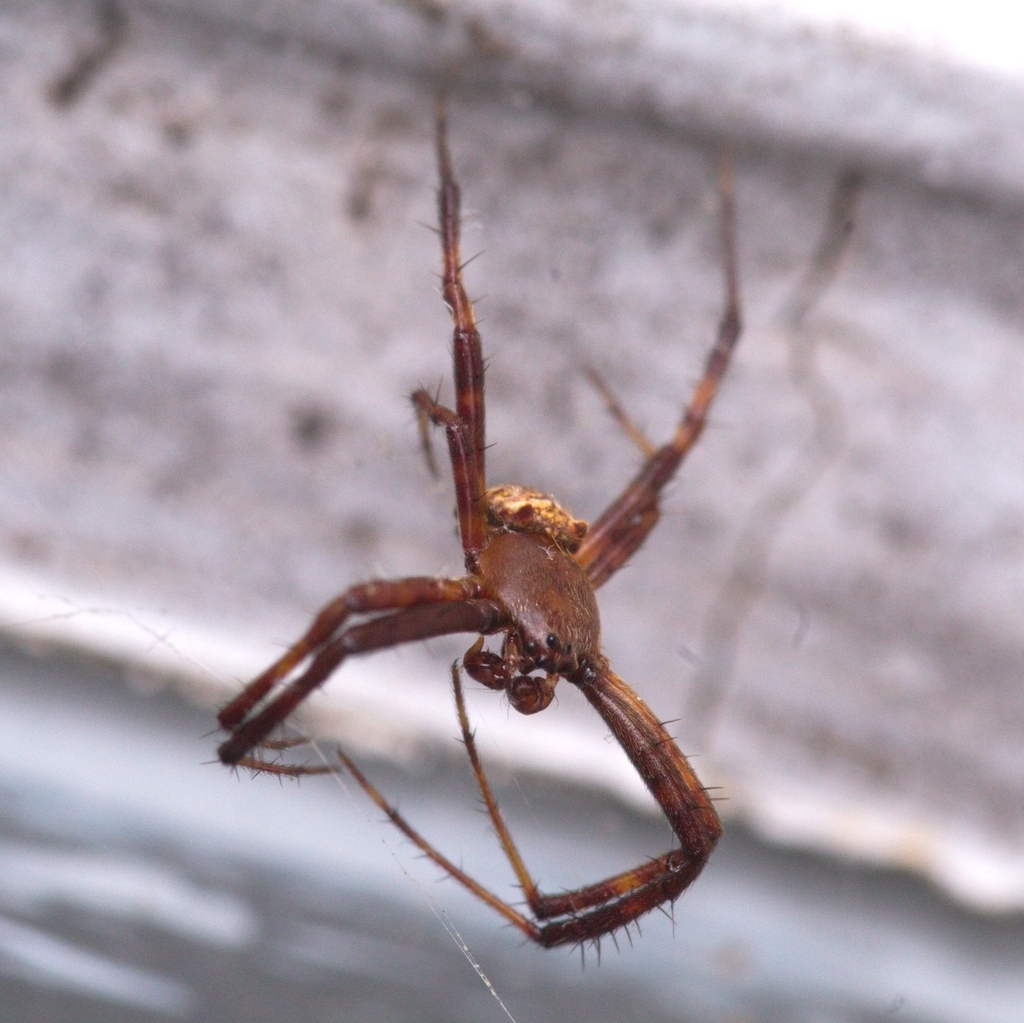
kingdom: Animalia
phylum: Arthropoda
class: Arachnida
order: Araneae
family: Araneidae
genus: Gea
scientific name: Gea heptagon
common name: Orb weavers
